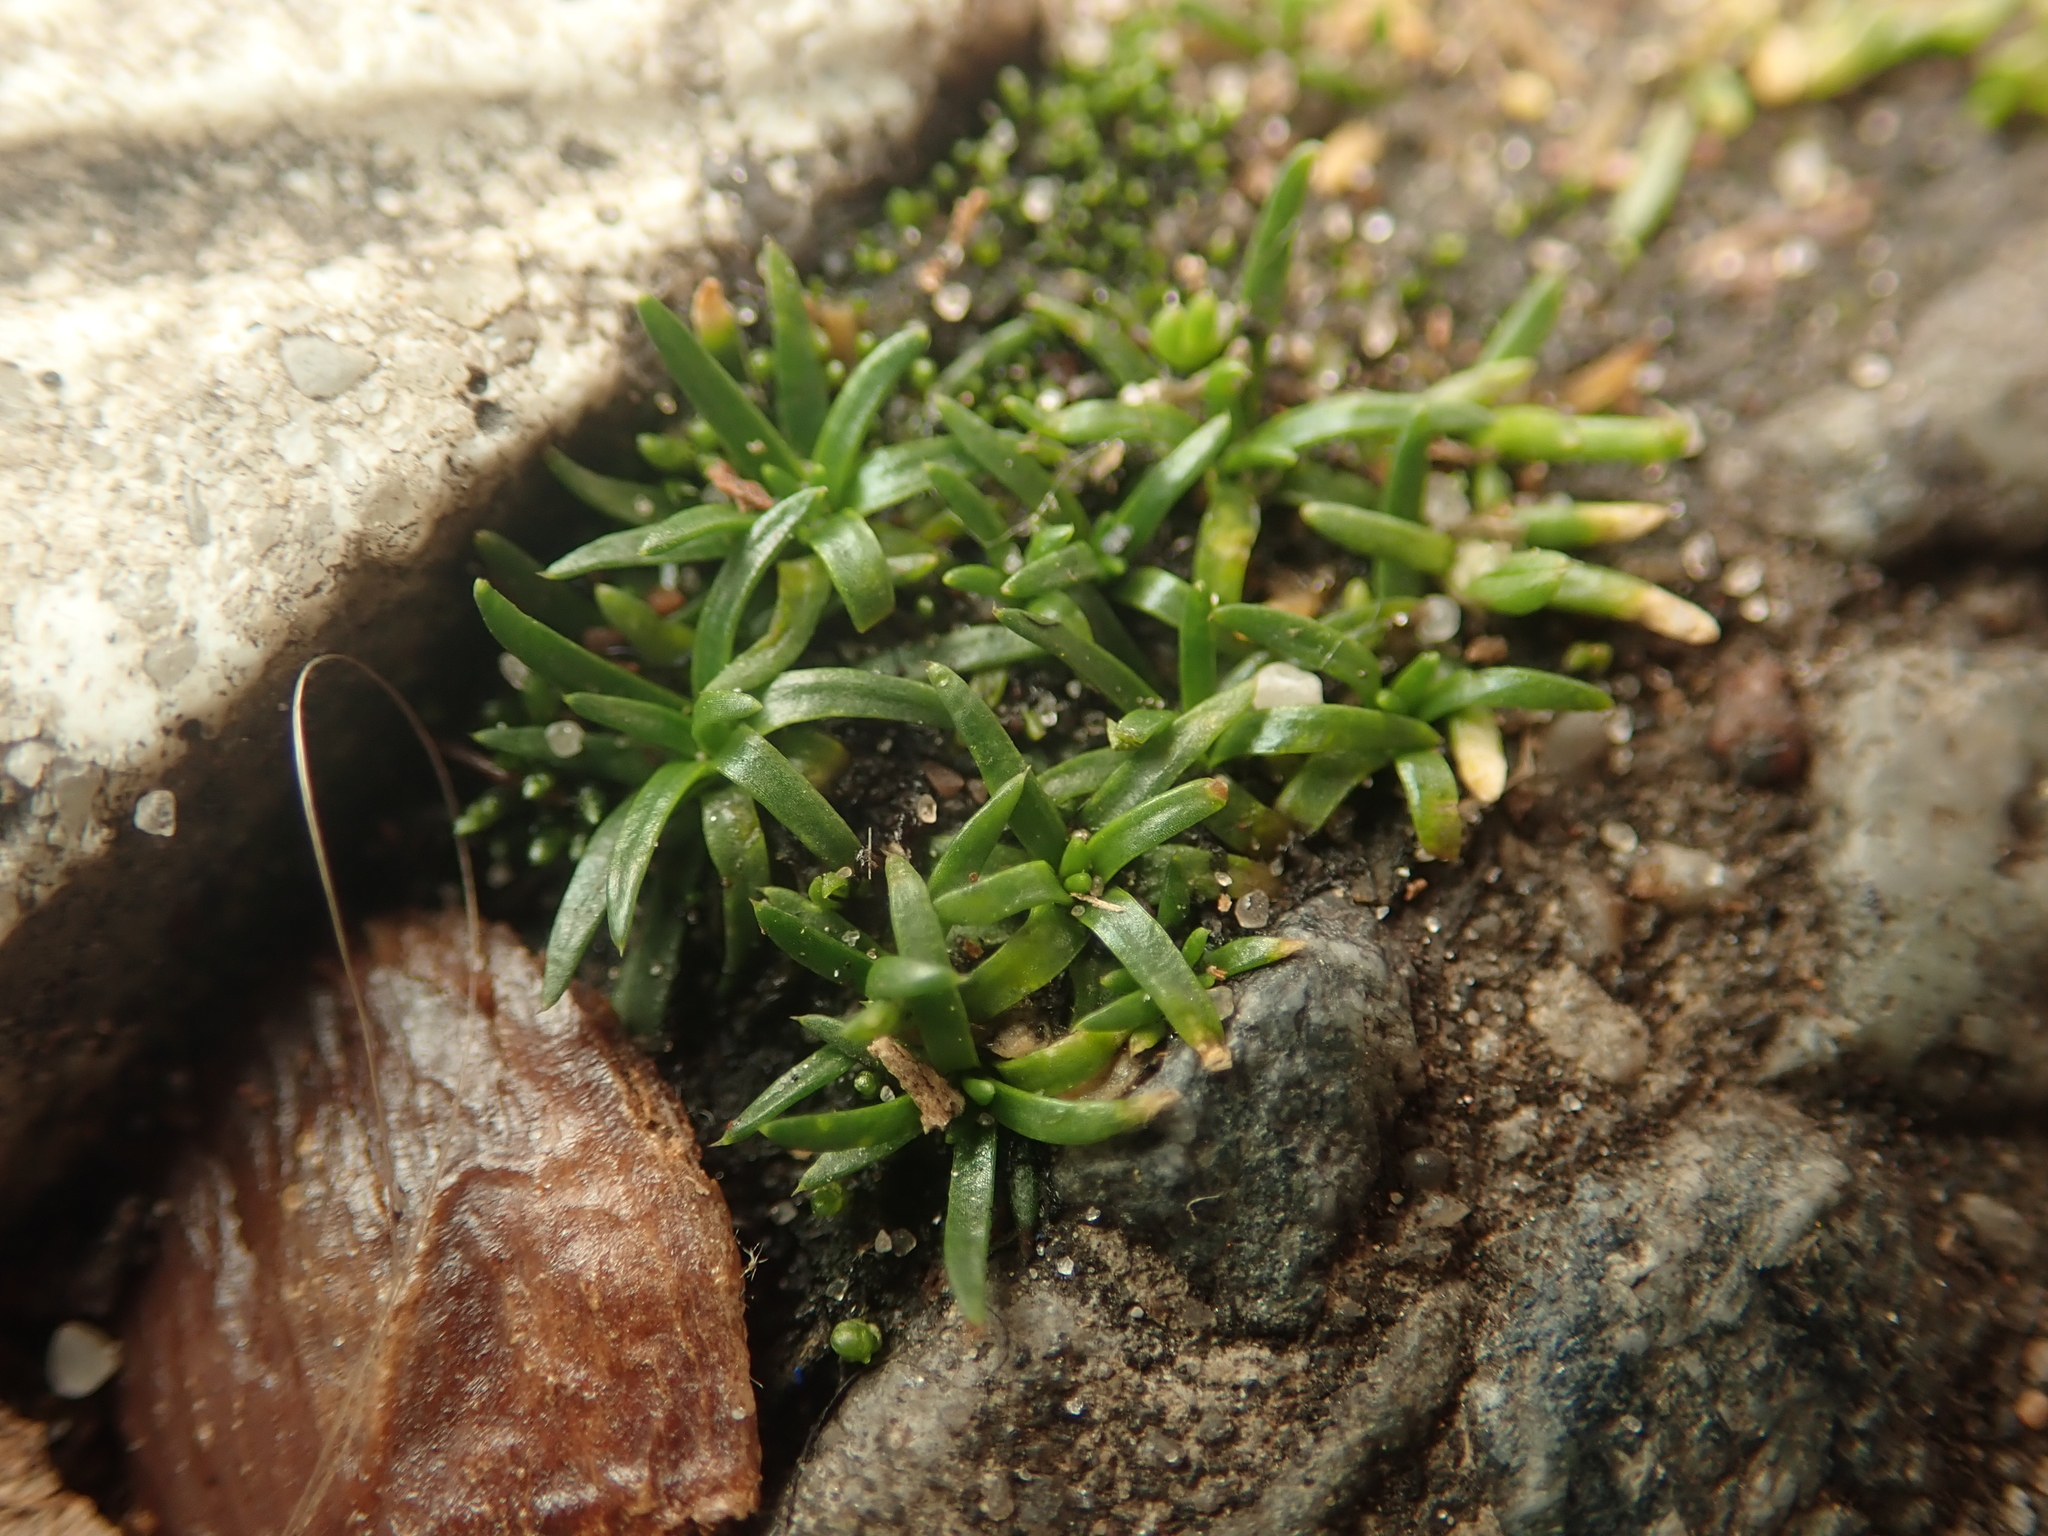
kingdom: Plantae
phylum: Tracheophyta
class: Magnoliopsida
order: Caryophyllales
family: Caryophyllaceae
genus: Sagina
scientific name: Sagina procumbens
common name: Procumbent pearlwort
